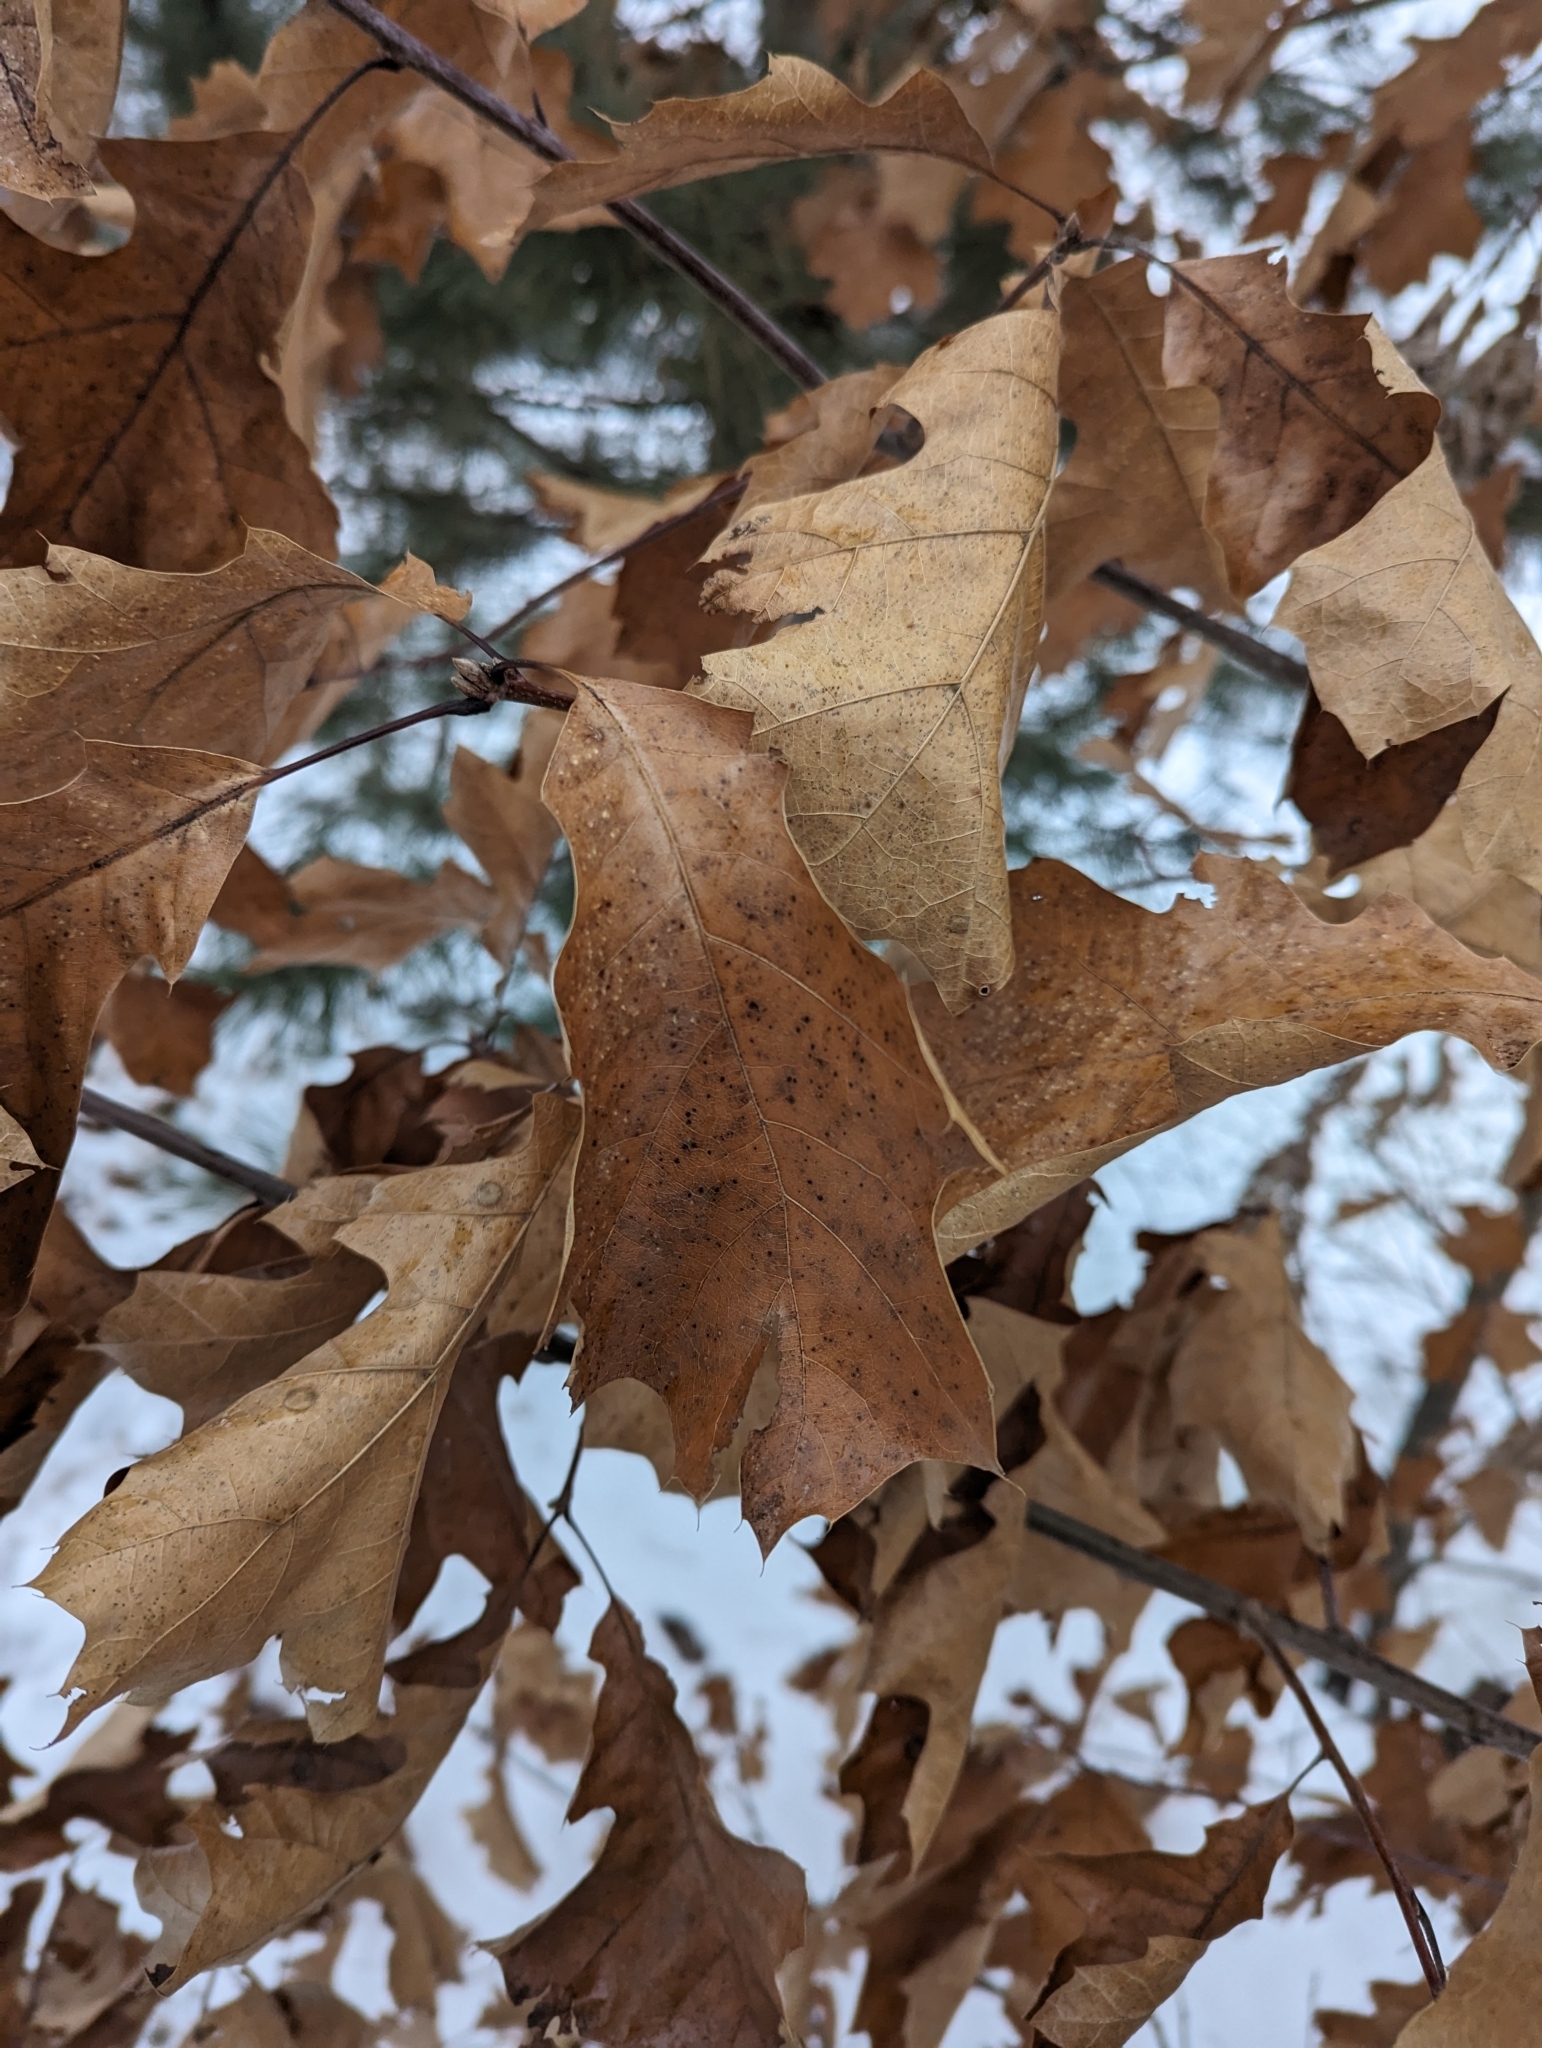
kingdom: Plantae
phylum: Tracheophyta
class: Magnoliopsida
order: Fagales
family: Fagaceae
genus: Quercus
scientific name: Quercus rubra
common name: Red oak
